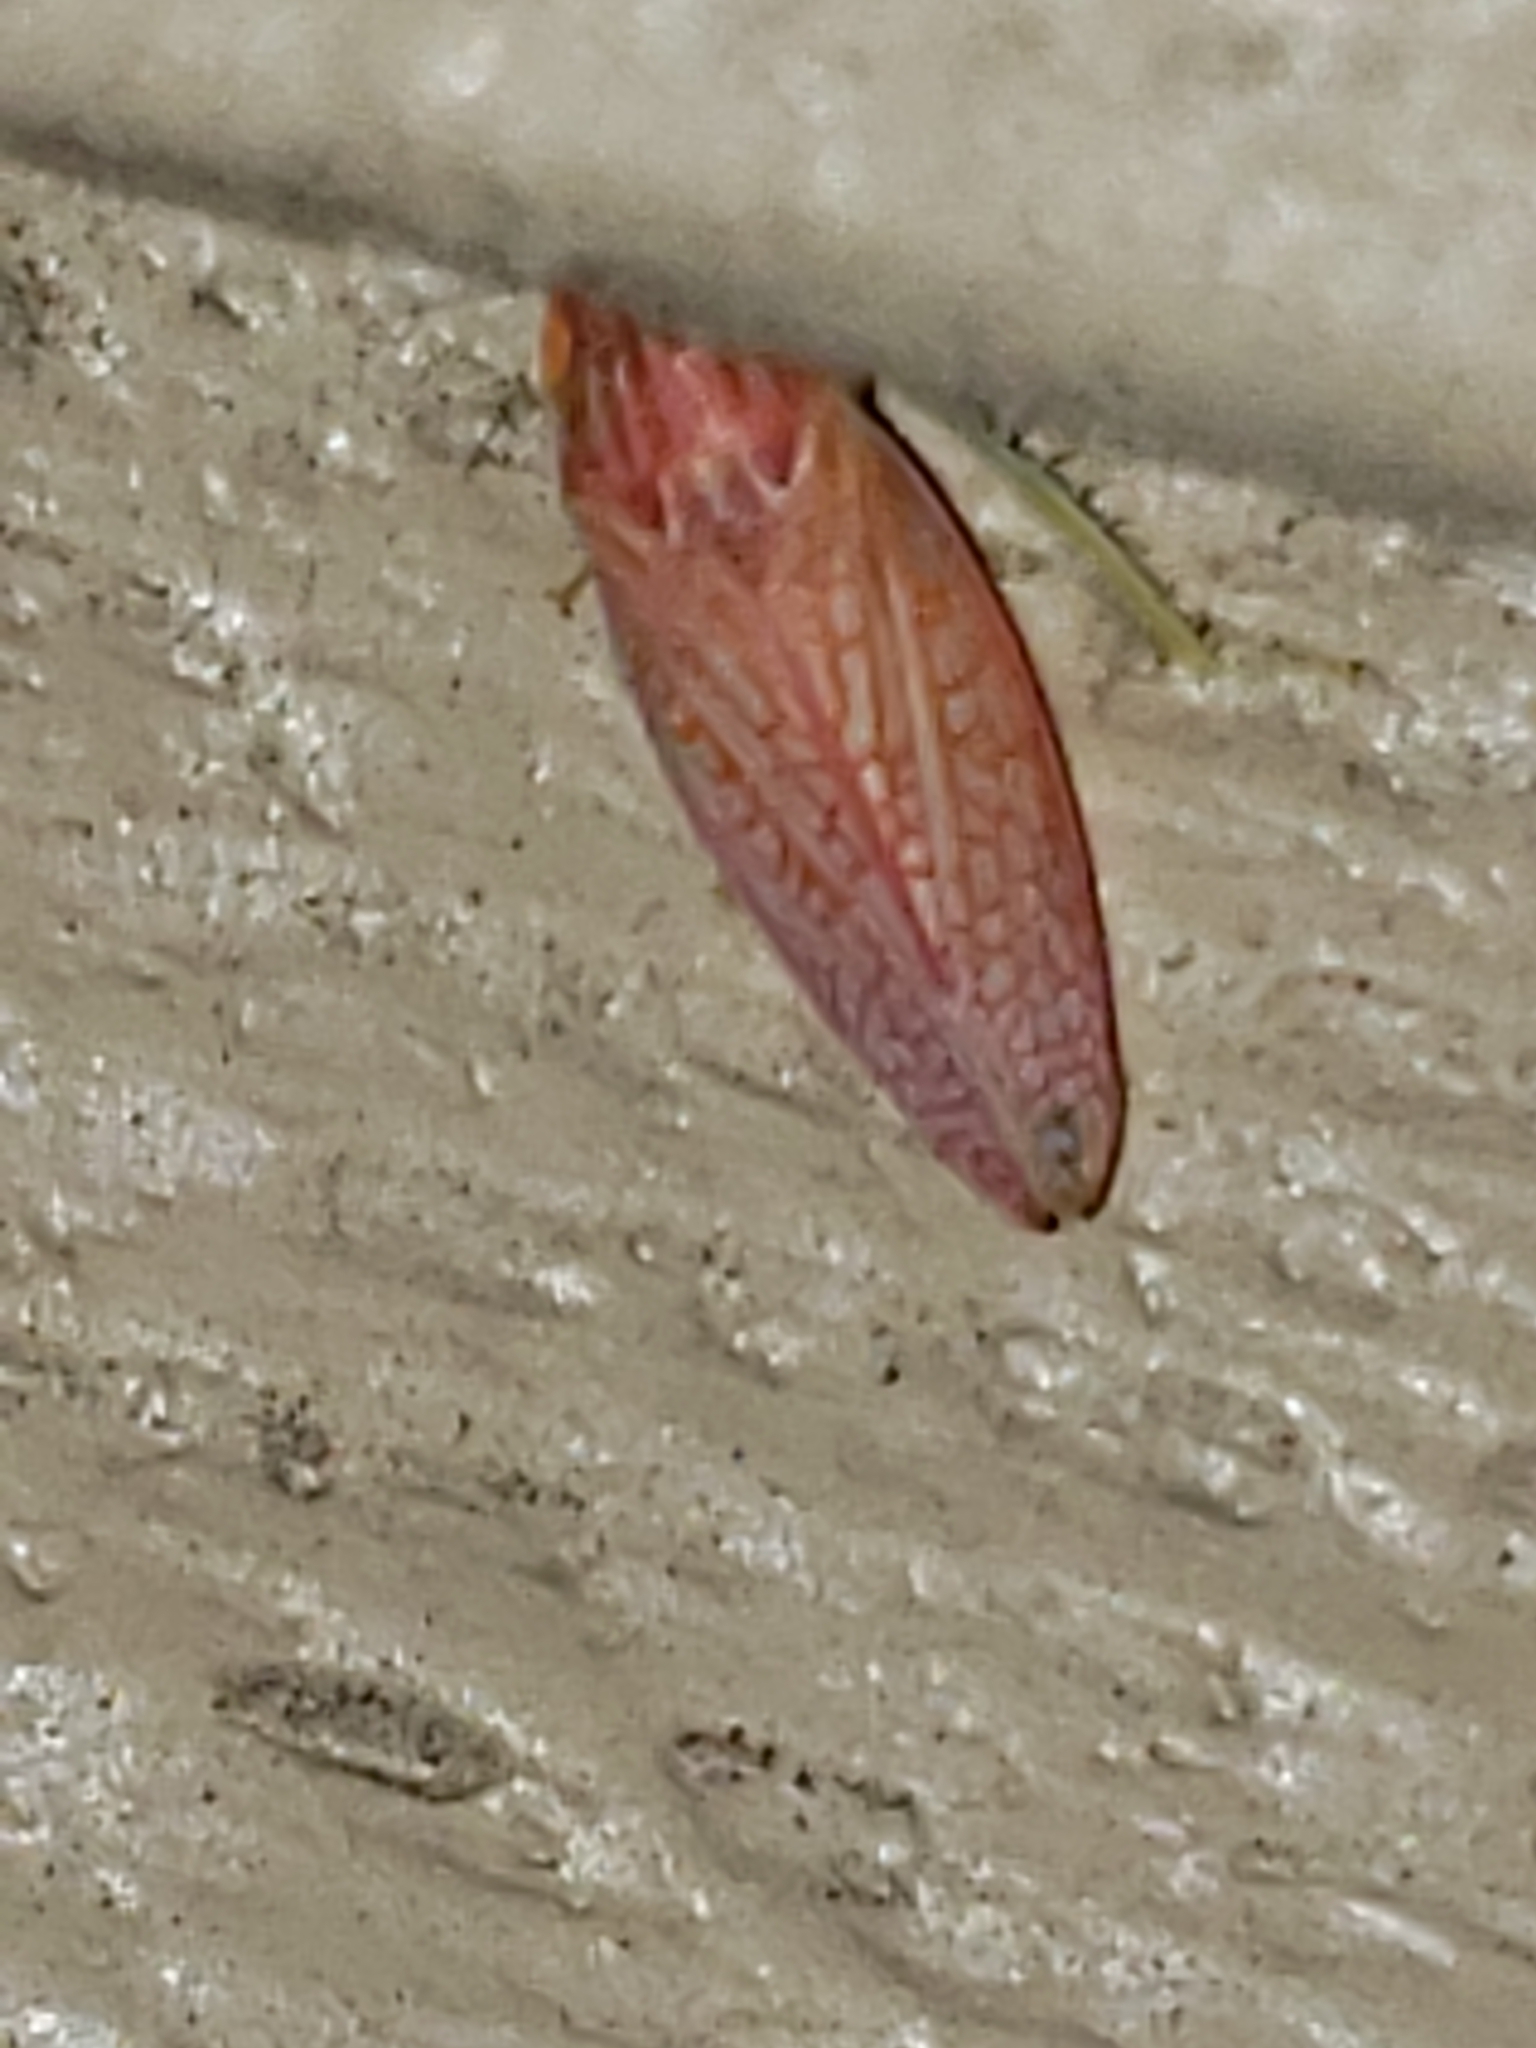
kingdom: Animalia
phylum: Arthropoda
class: Insecta
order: Hemiptera
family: Cicadellidae
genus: Gyponana
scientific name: Gyponana gladia
